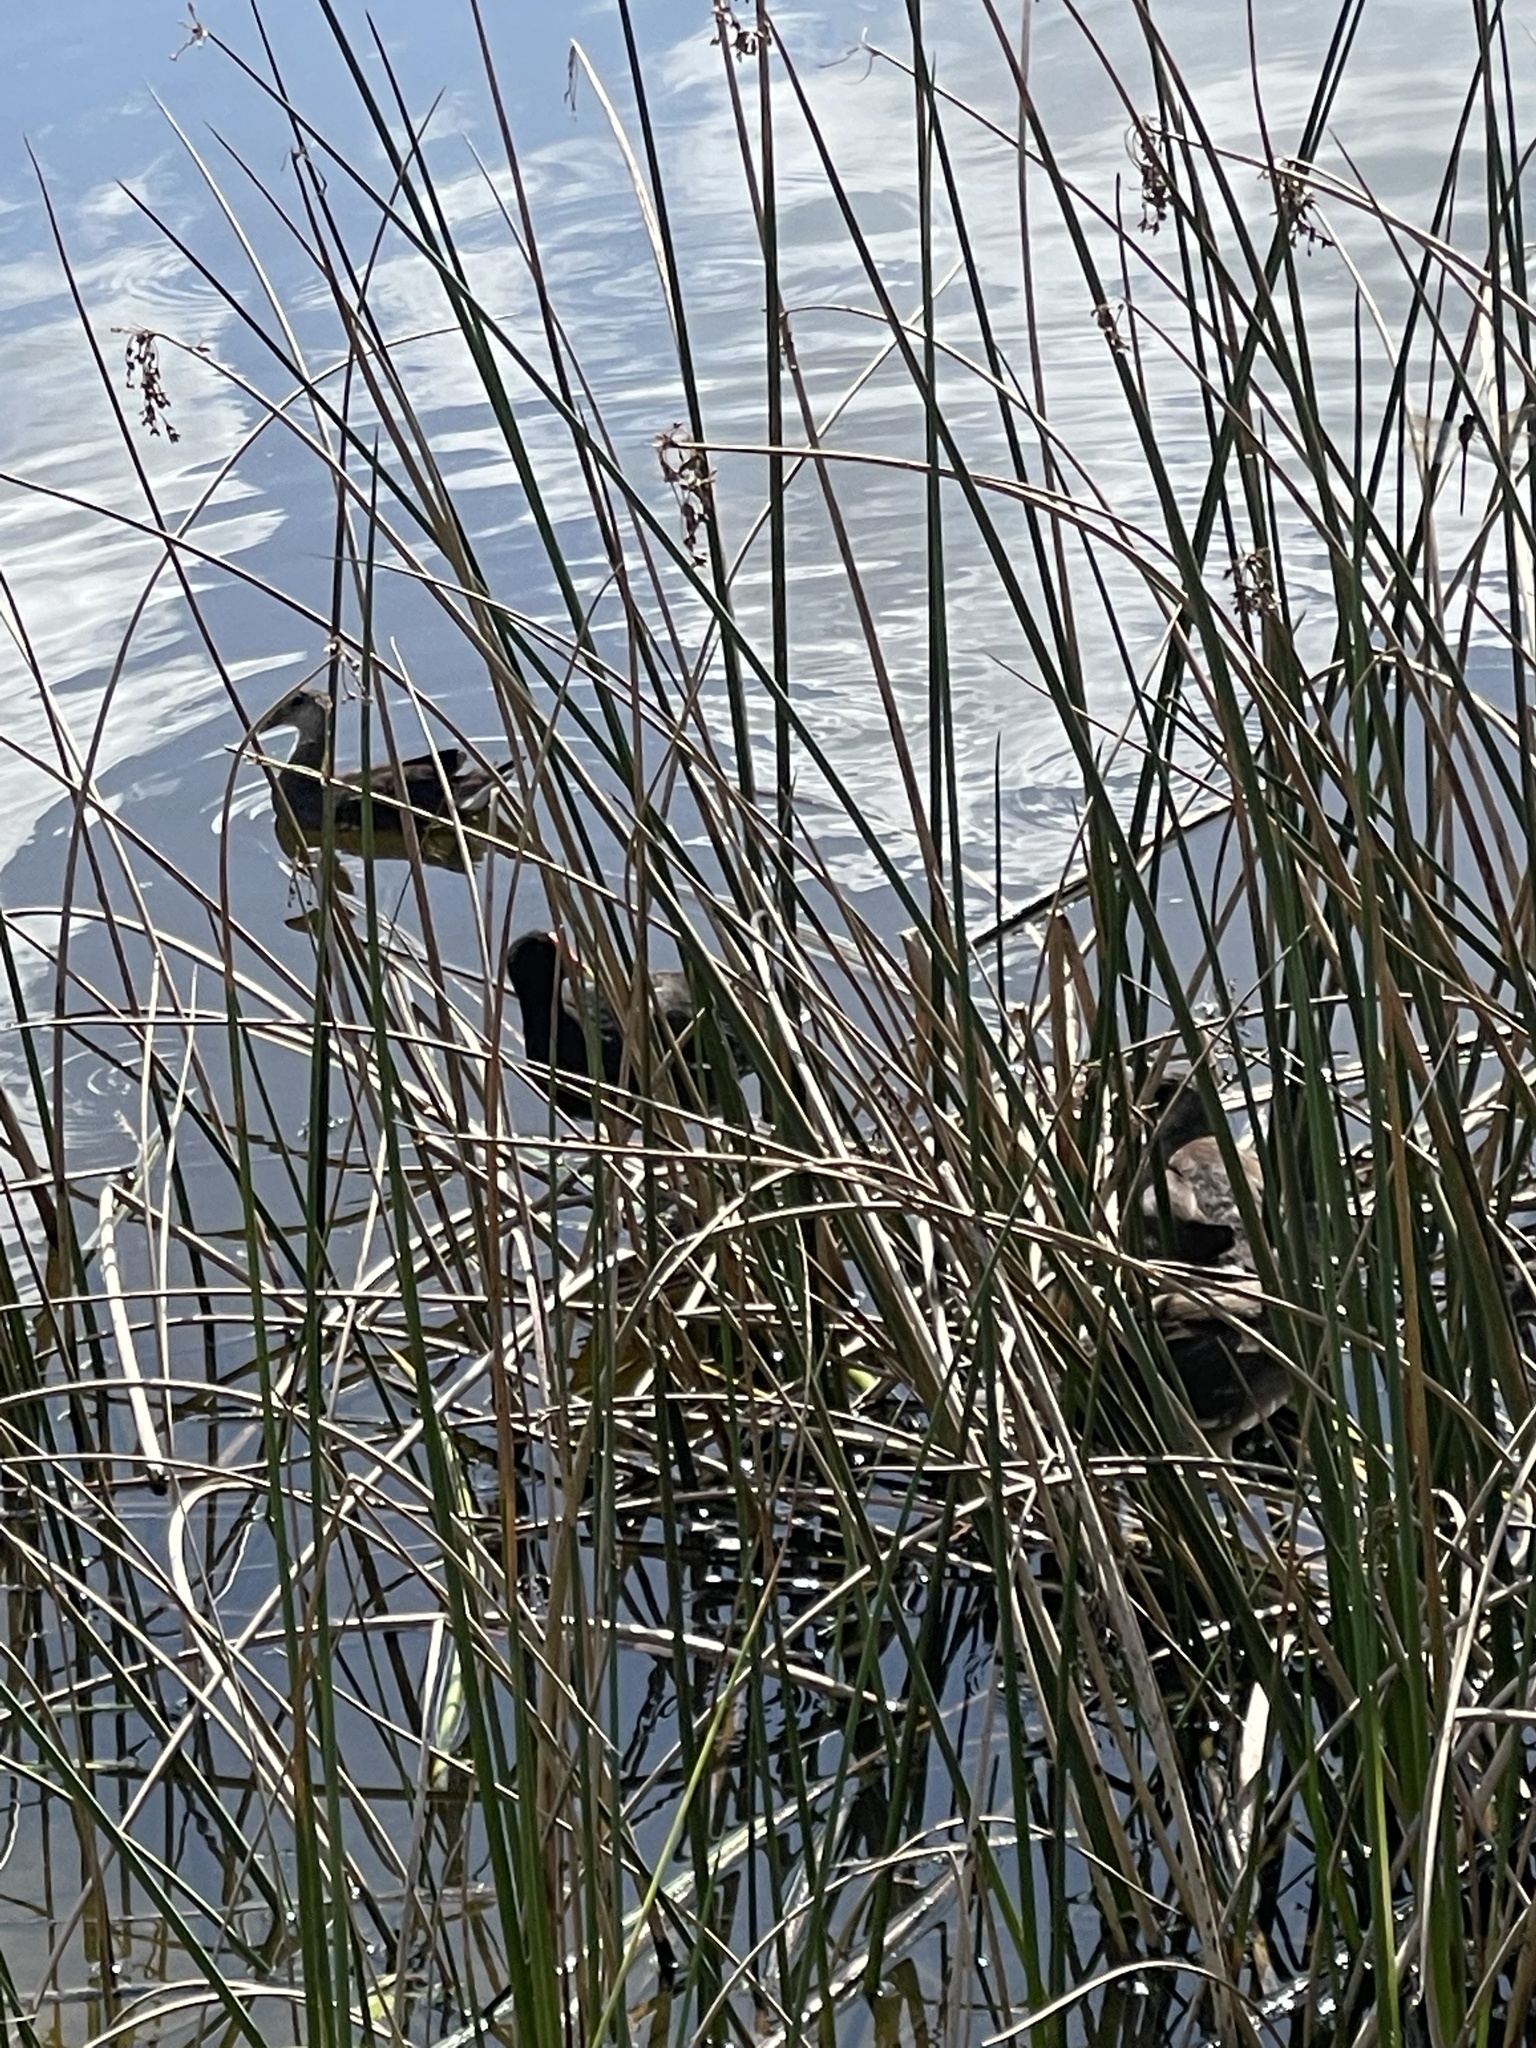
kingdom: Animalia
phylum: Chordata
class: Aves
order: Gruiformes
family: Rallidae
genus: Gallinula
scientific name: Gallinula chloropus
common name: Common moorhen
